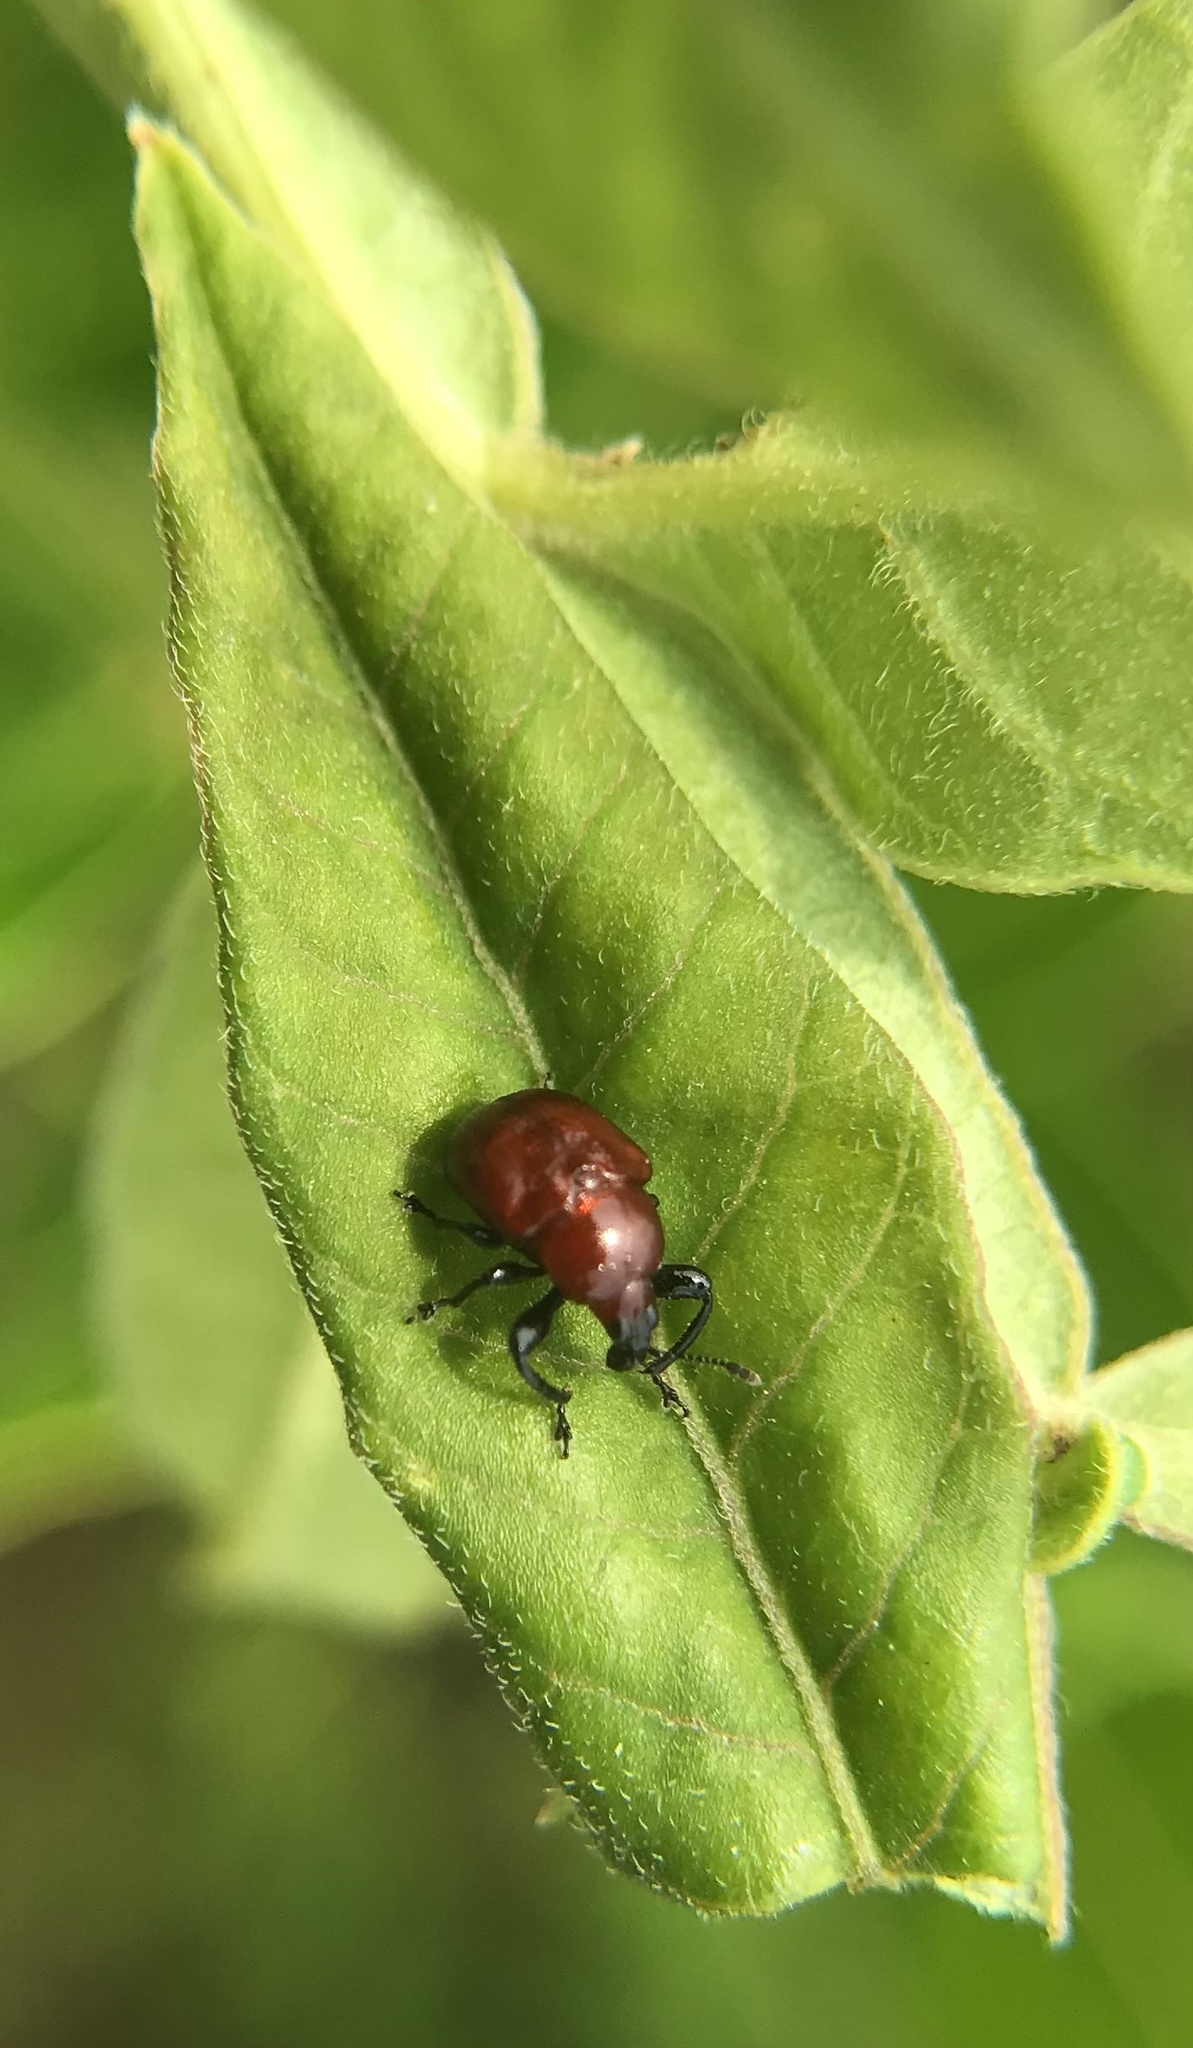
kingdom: Animalia
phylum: Arthropoda
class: Insecta
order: Coleoptera
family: Attelabidae
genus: Homoeolabus
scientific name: Homoeolabus analis
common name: Oak leaf rolling weevil
